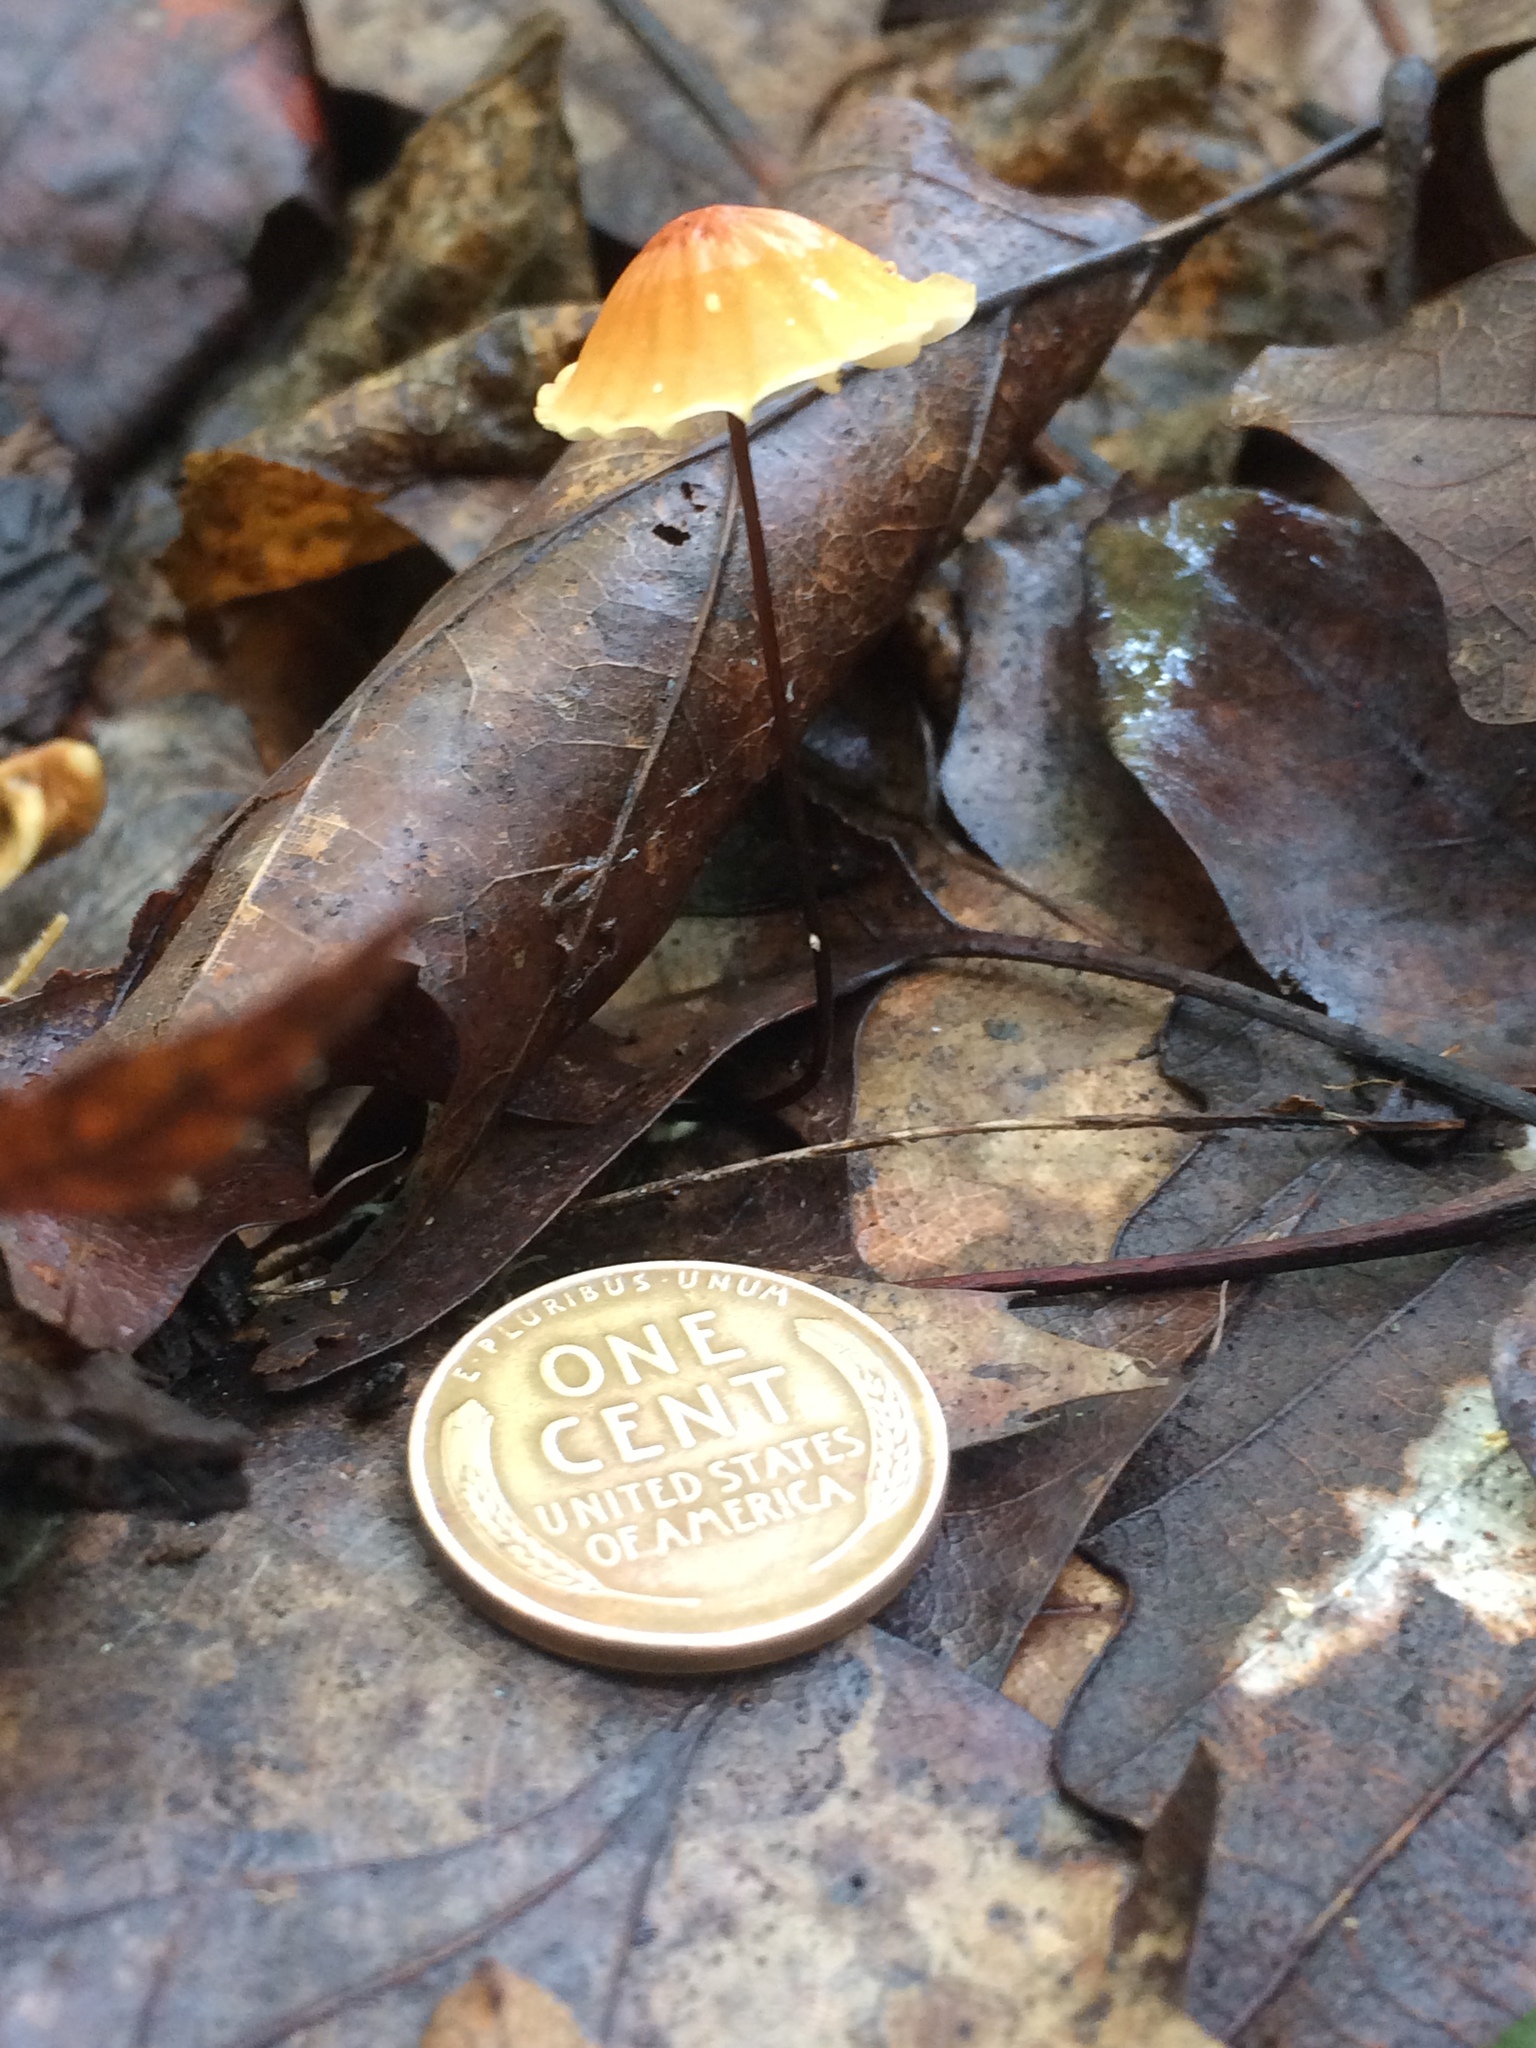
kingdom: Fungi
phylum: Basidiomycota
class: Agaricomycetes
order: Agaricales
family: Marasmiaceae
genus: Marasmius
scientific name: Marasmius siccus
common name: Orange pinwheel
